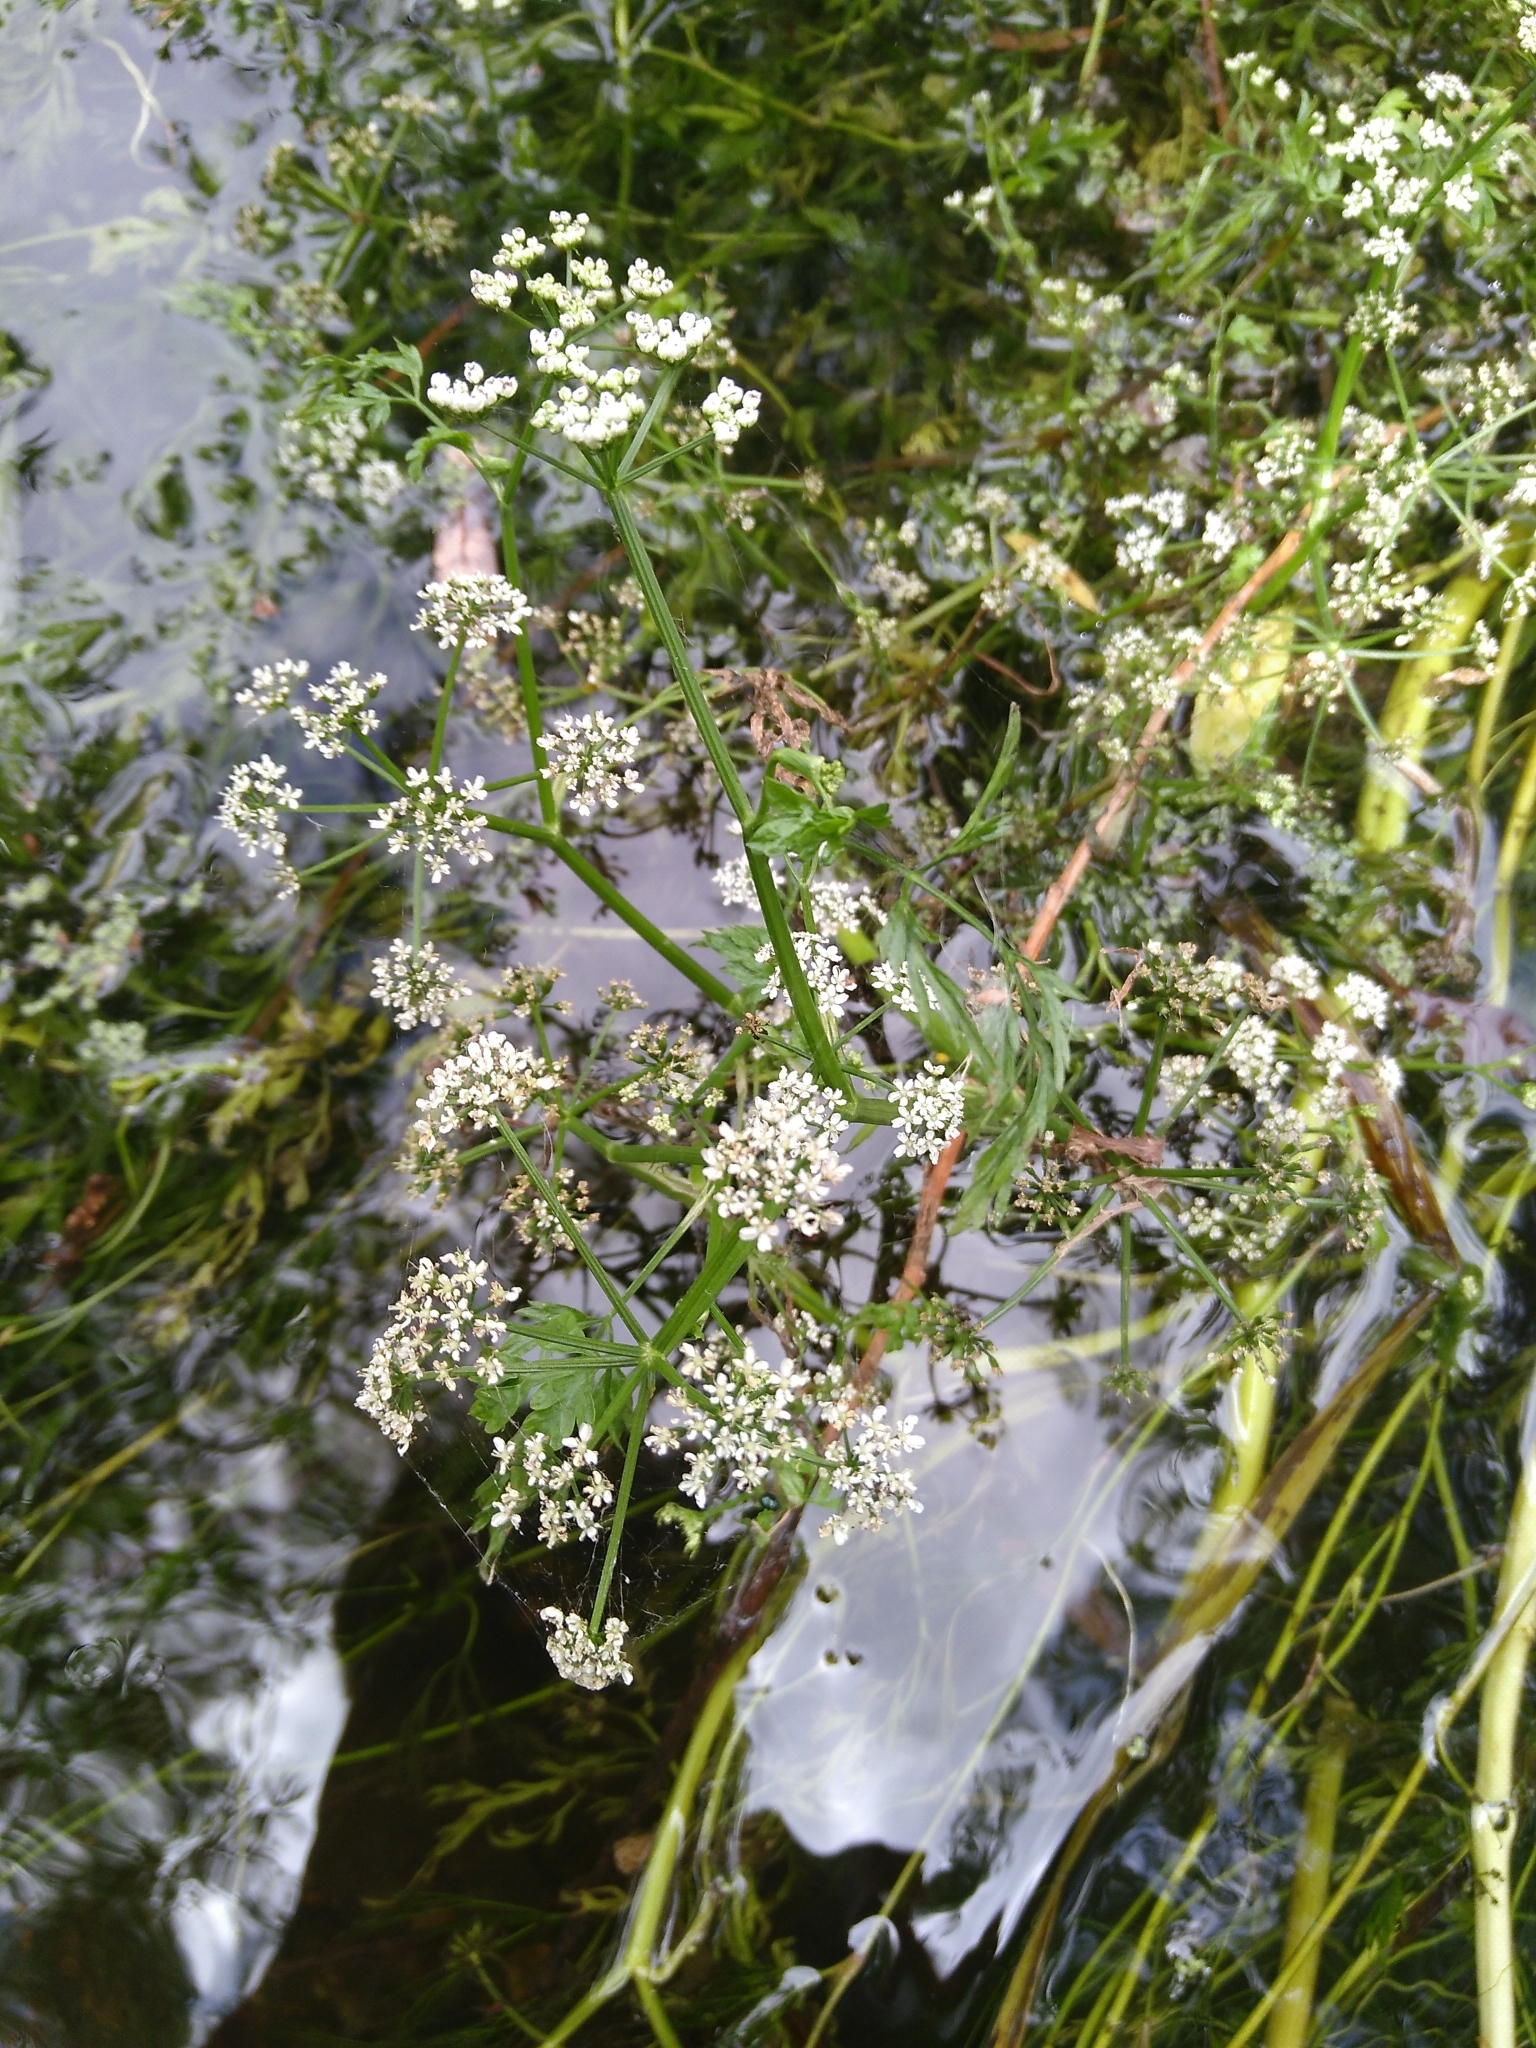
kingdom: Plantae
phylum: Tracheophyta
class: Magnoliopsida
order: Apiales
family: Apiaceae
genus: Oenanthe
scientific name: Oenanthe fluviatilis
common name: River water-dropwort
